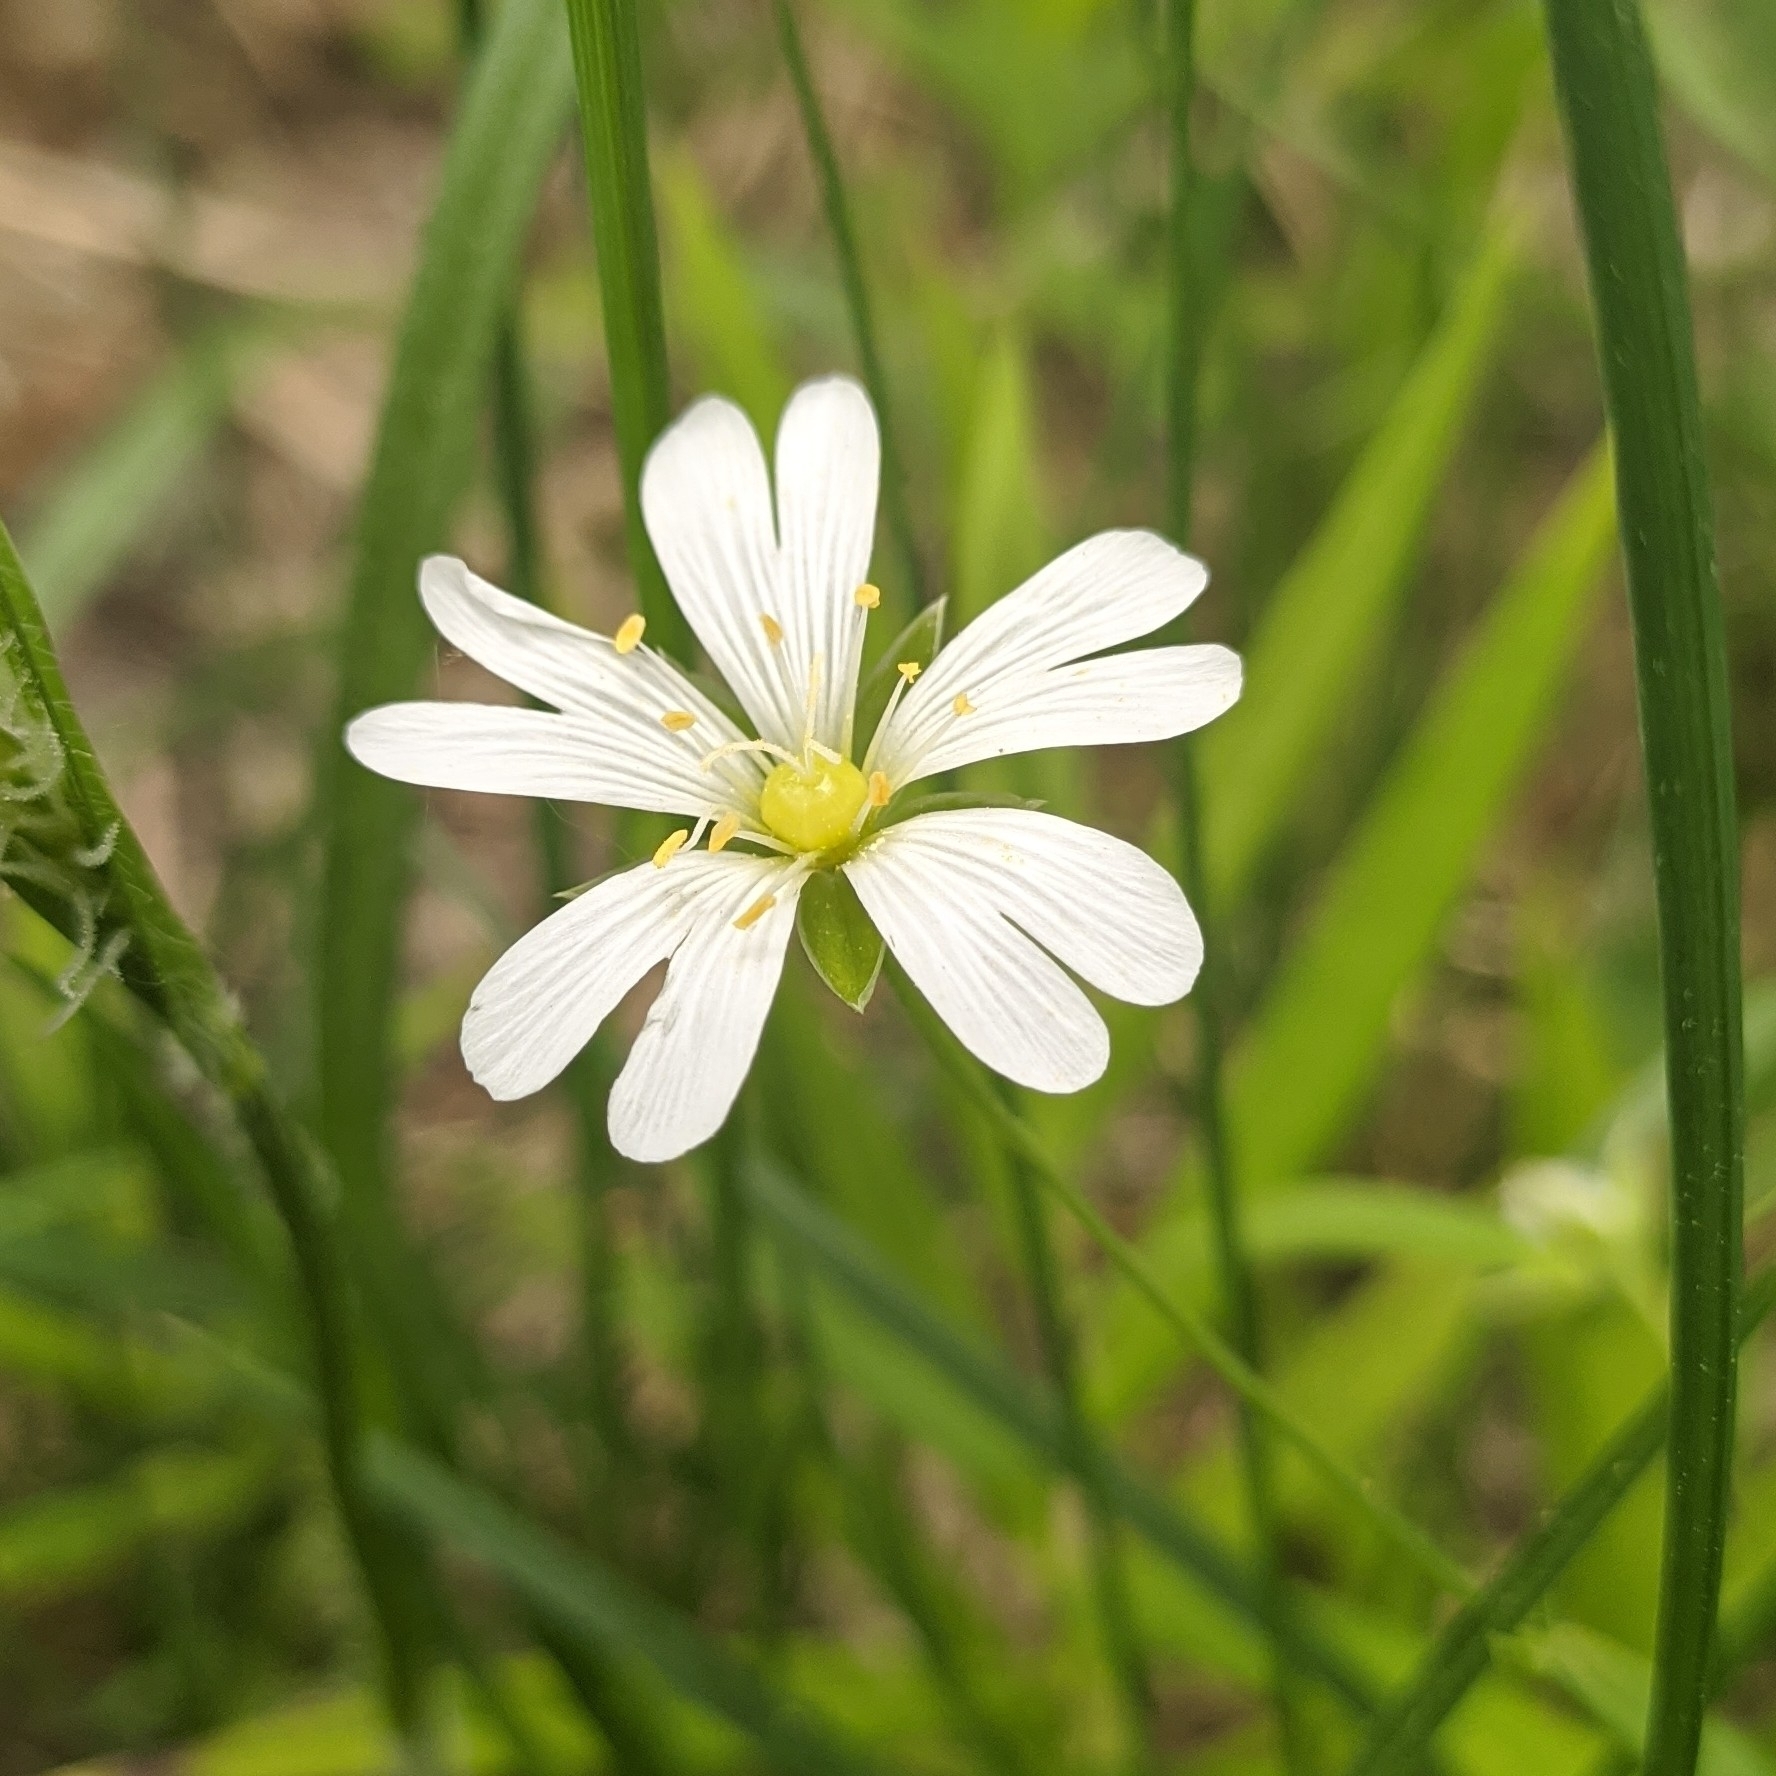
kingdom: Plantae
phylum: Tracheophyta
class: Magnoliopsida
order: Caryophyllales
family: Caryophyllaceae
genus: Rabelera
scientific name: Rabelera holostea
